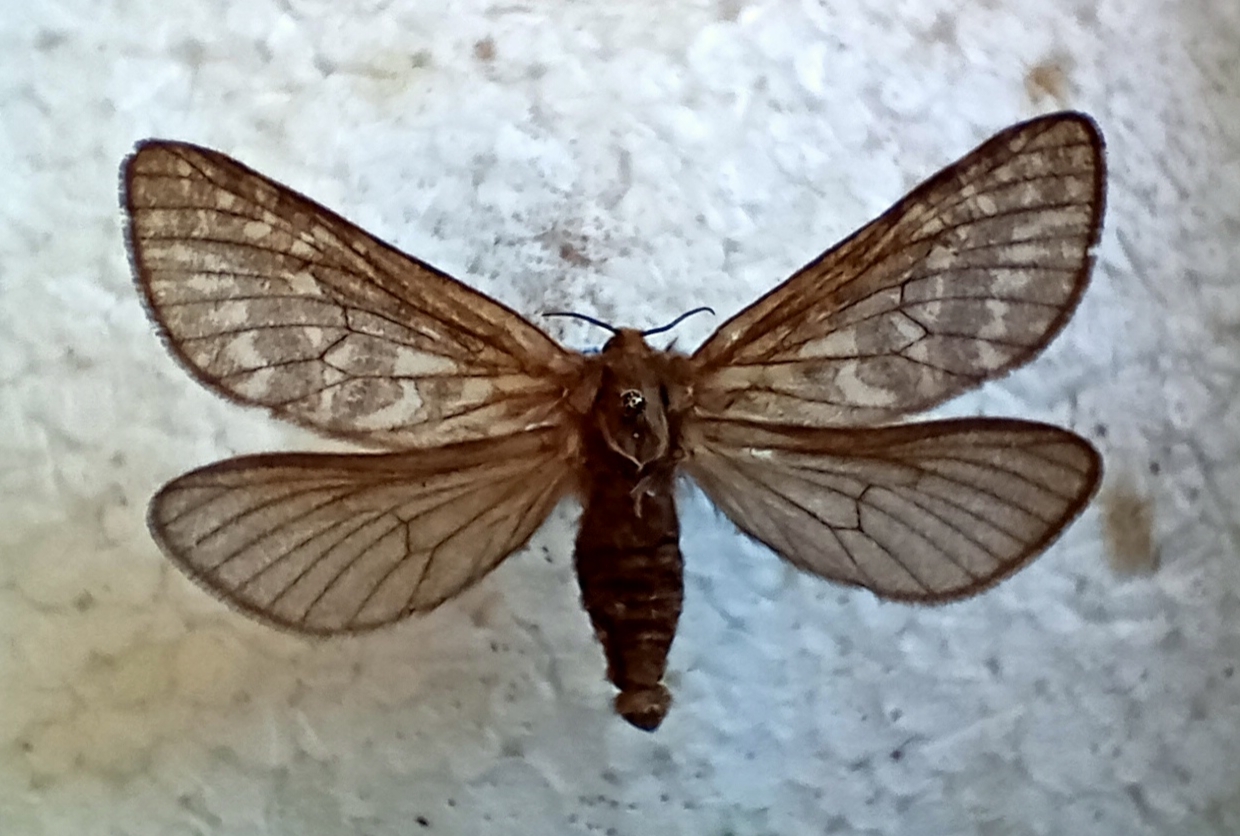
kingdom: Animalia
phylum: Arthropoda
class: Insecta
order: Lepidoptera
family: Hepialidae
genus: Pharmacis
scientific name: Pharmacis carna
